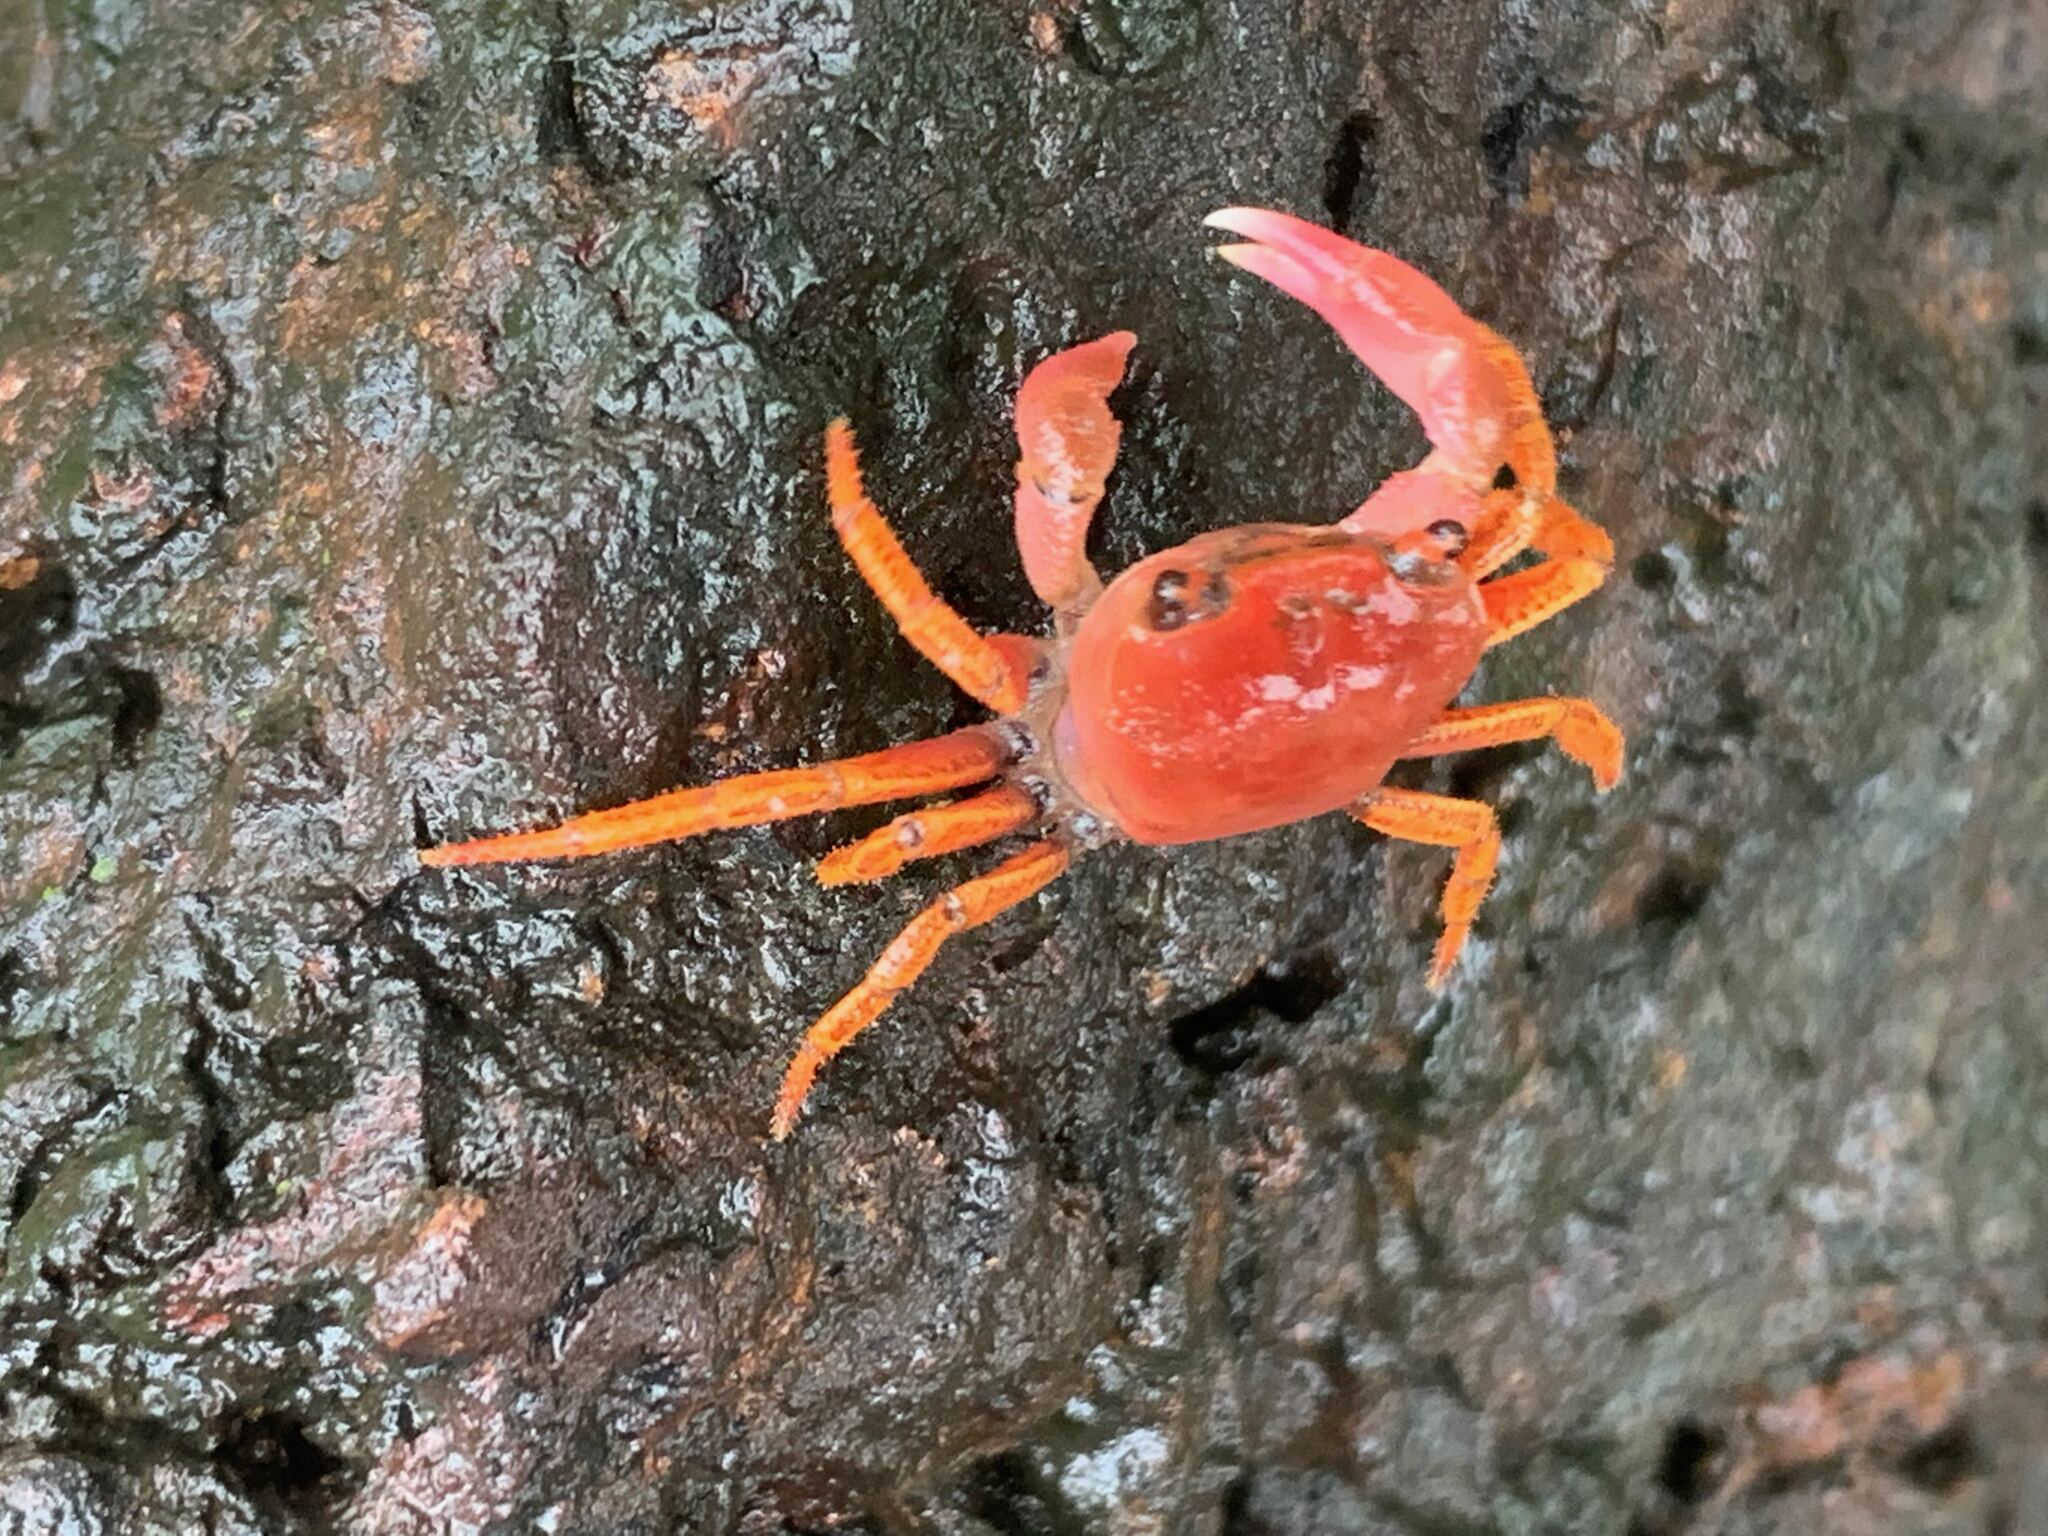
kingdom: Animalia
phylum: Arthropoda
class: Malacostraca
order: Decapoda
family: Gecarcinucidae
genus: Ghatiana
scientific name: Ghatiana splendida
